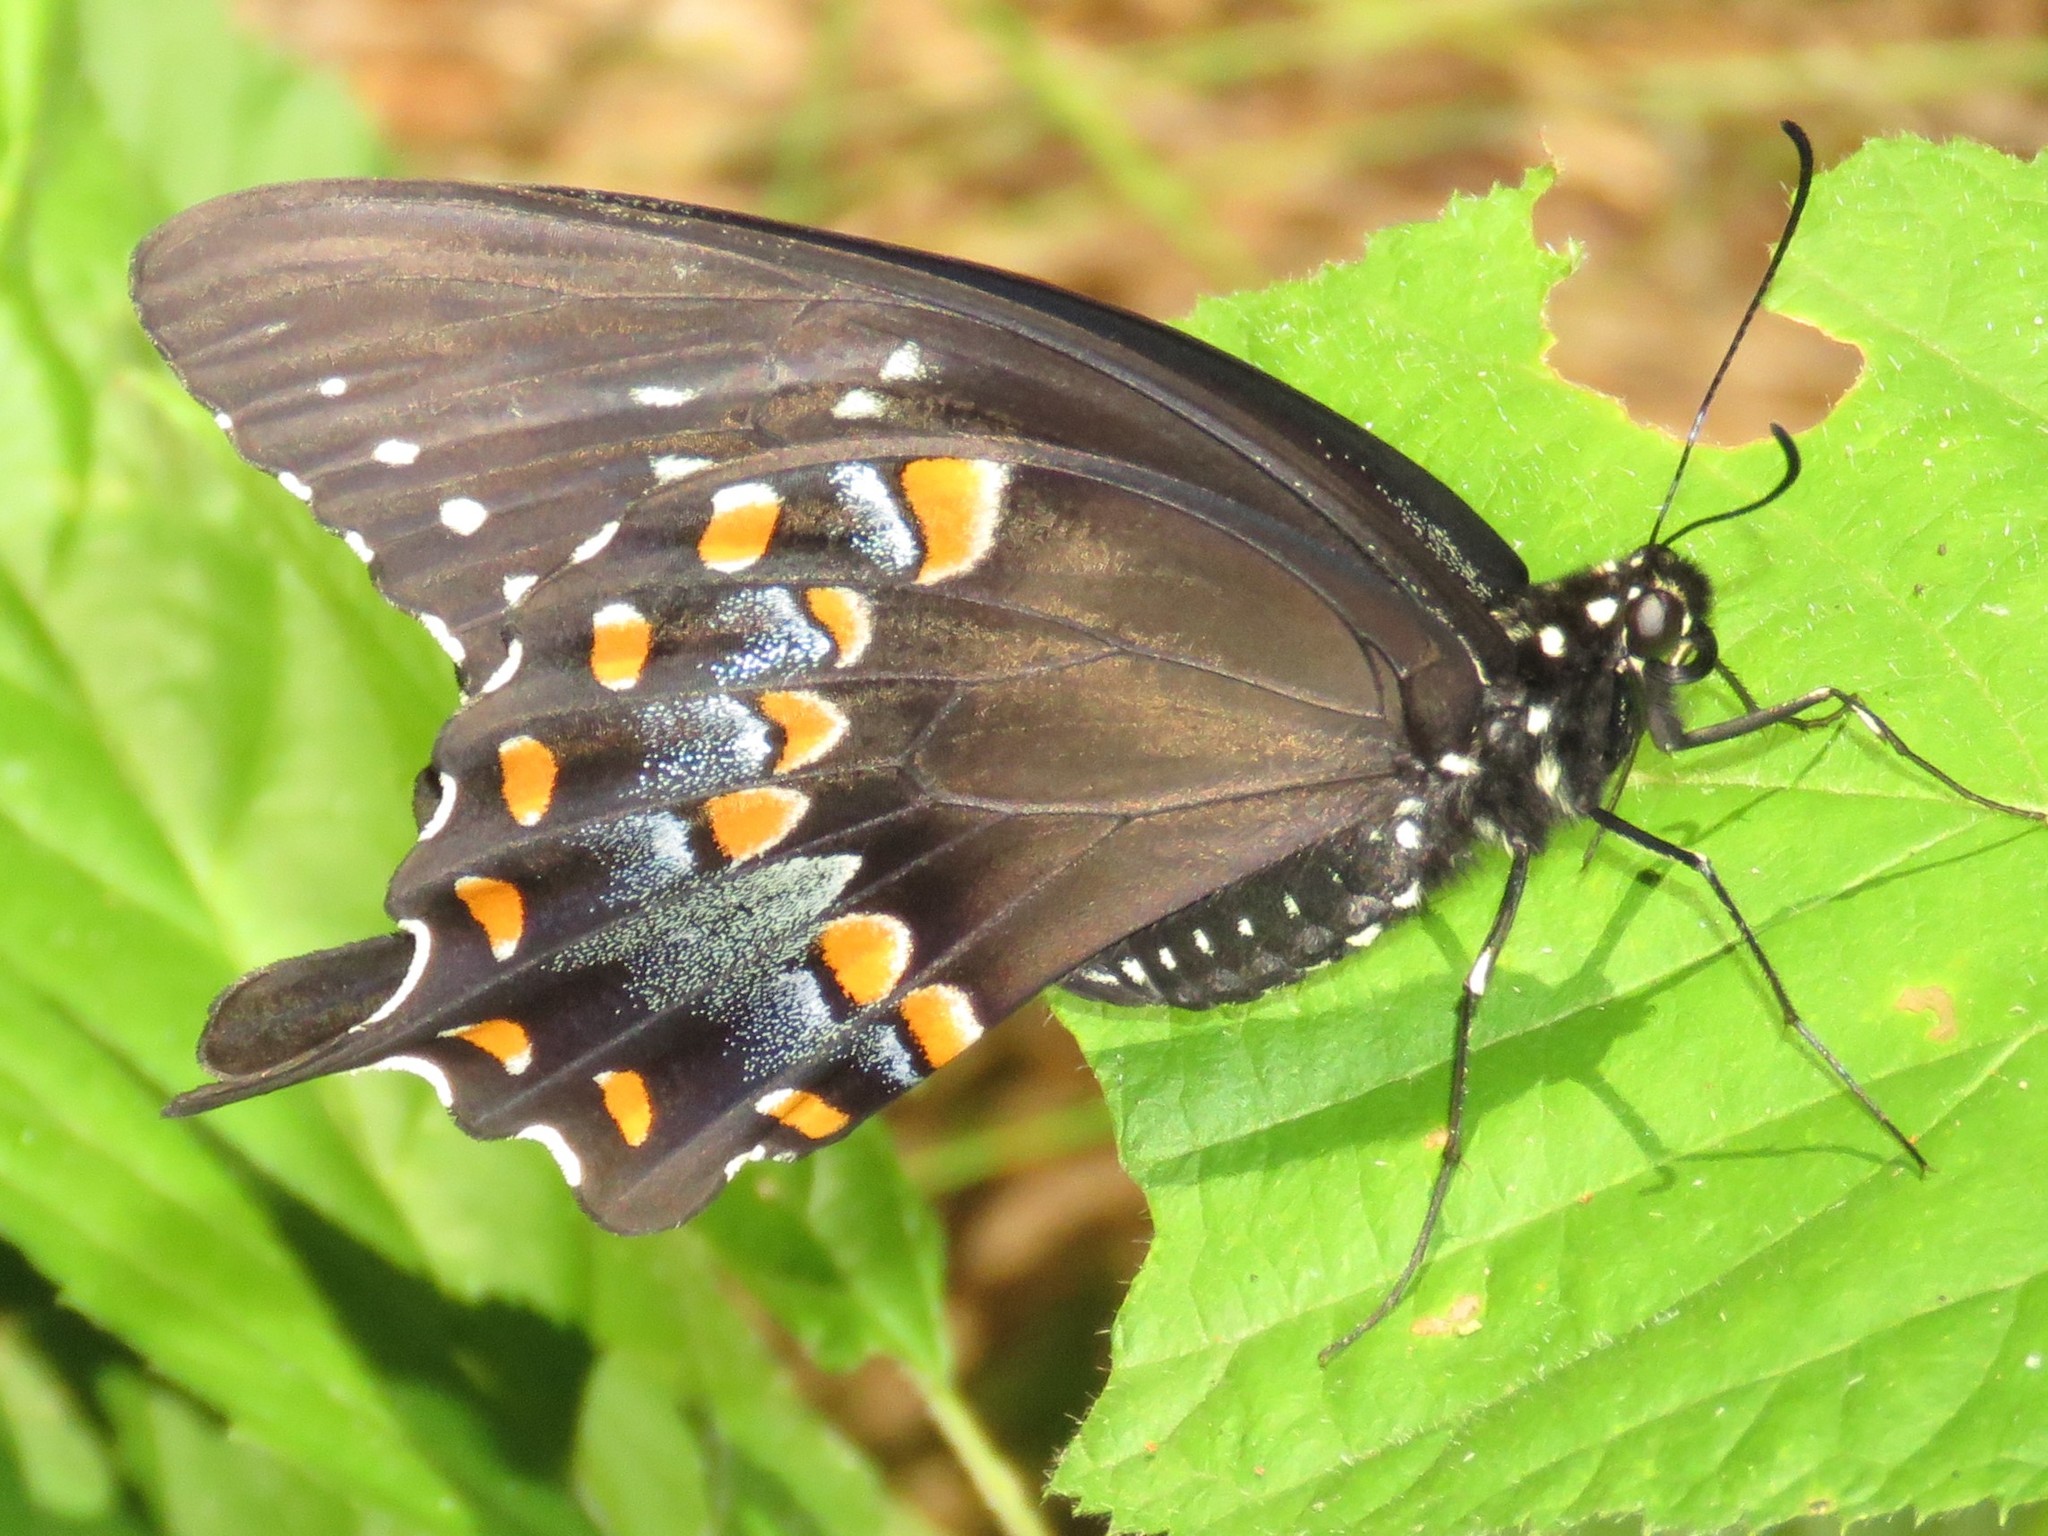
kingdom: Animalia
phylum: Arthropoda
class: Insecta
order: Lepidoptera
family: Papilionidae
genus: Papilio
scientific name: Papilio troilus
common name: Spicebush swallowtail
